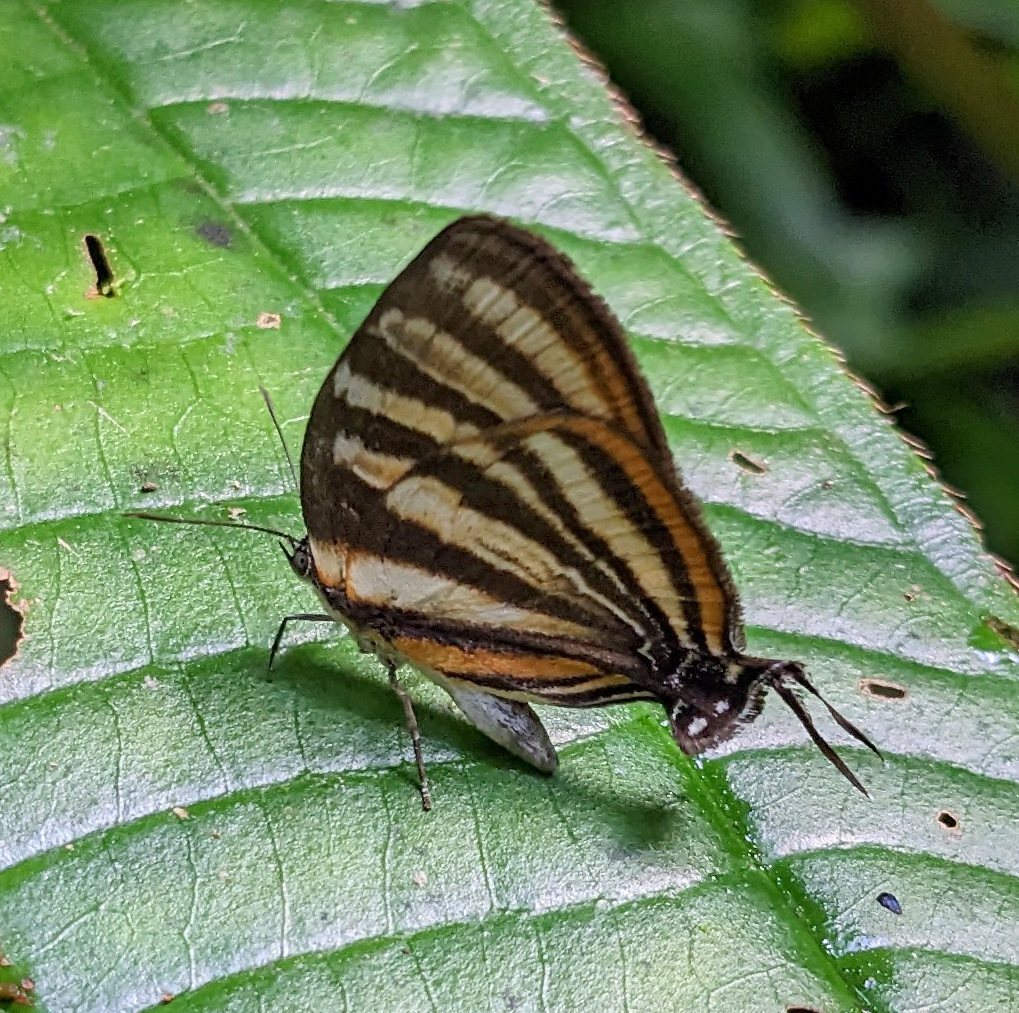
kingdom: Animalia
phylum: Arthropoda
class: Insecta
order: Lepidoptera
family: Lycaenidae
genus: Thecla
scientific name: Thecla aetolus
